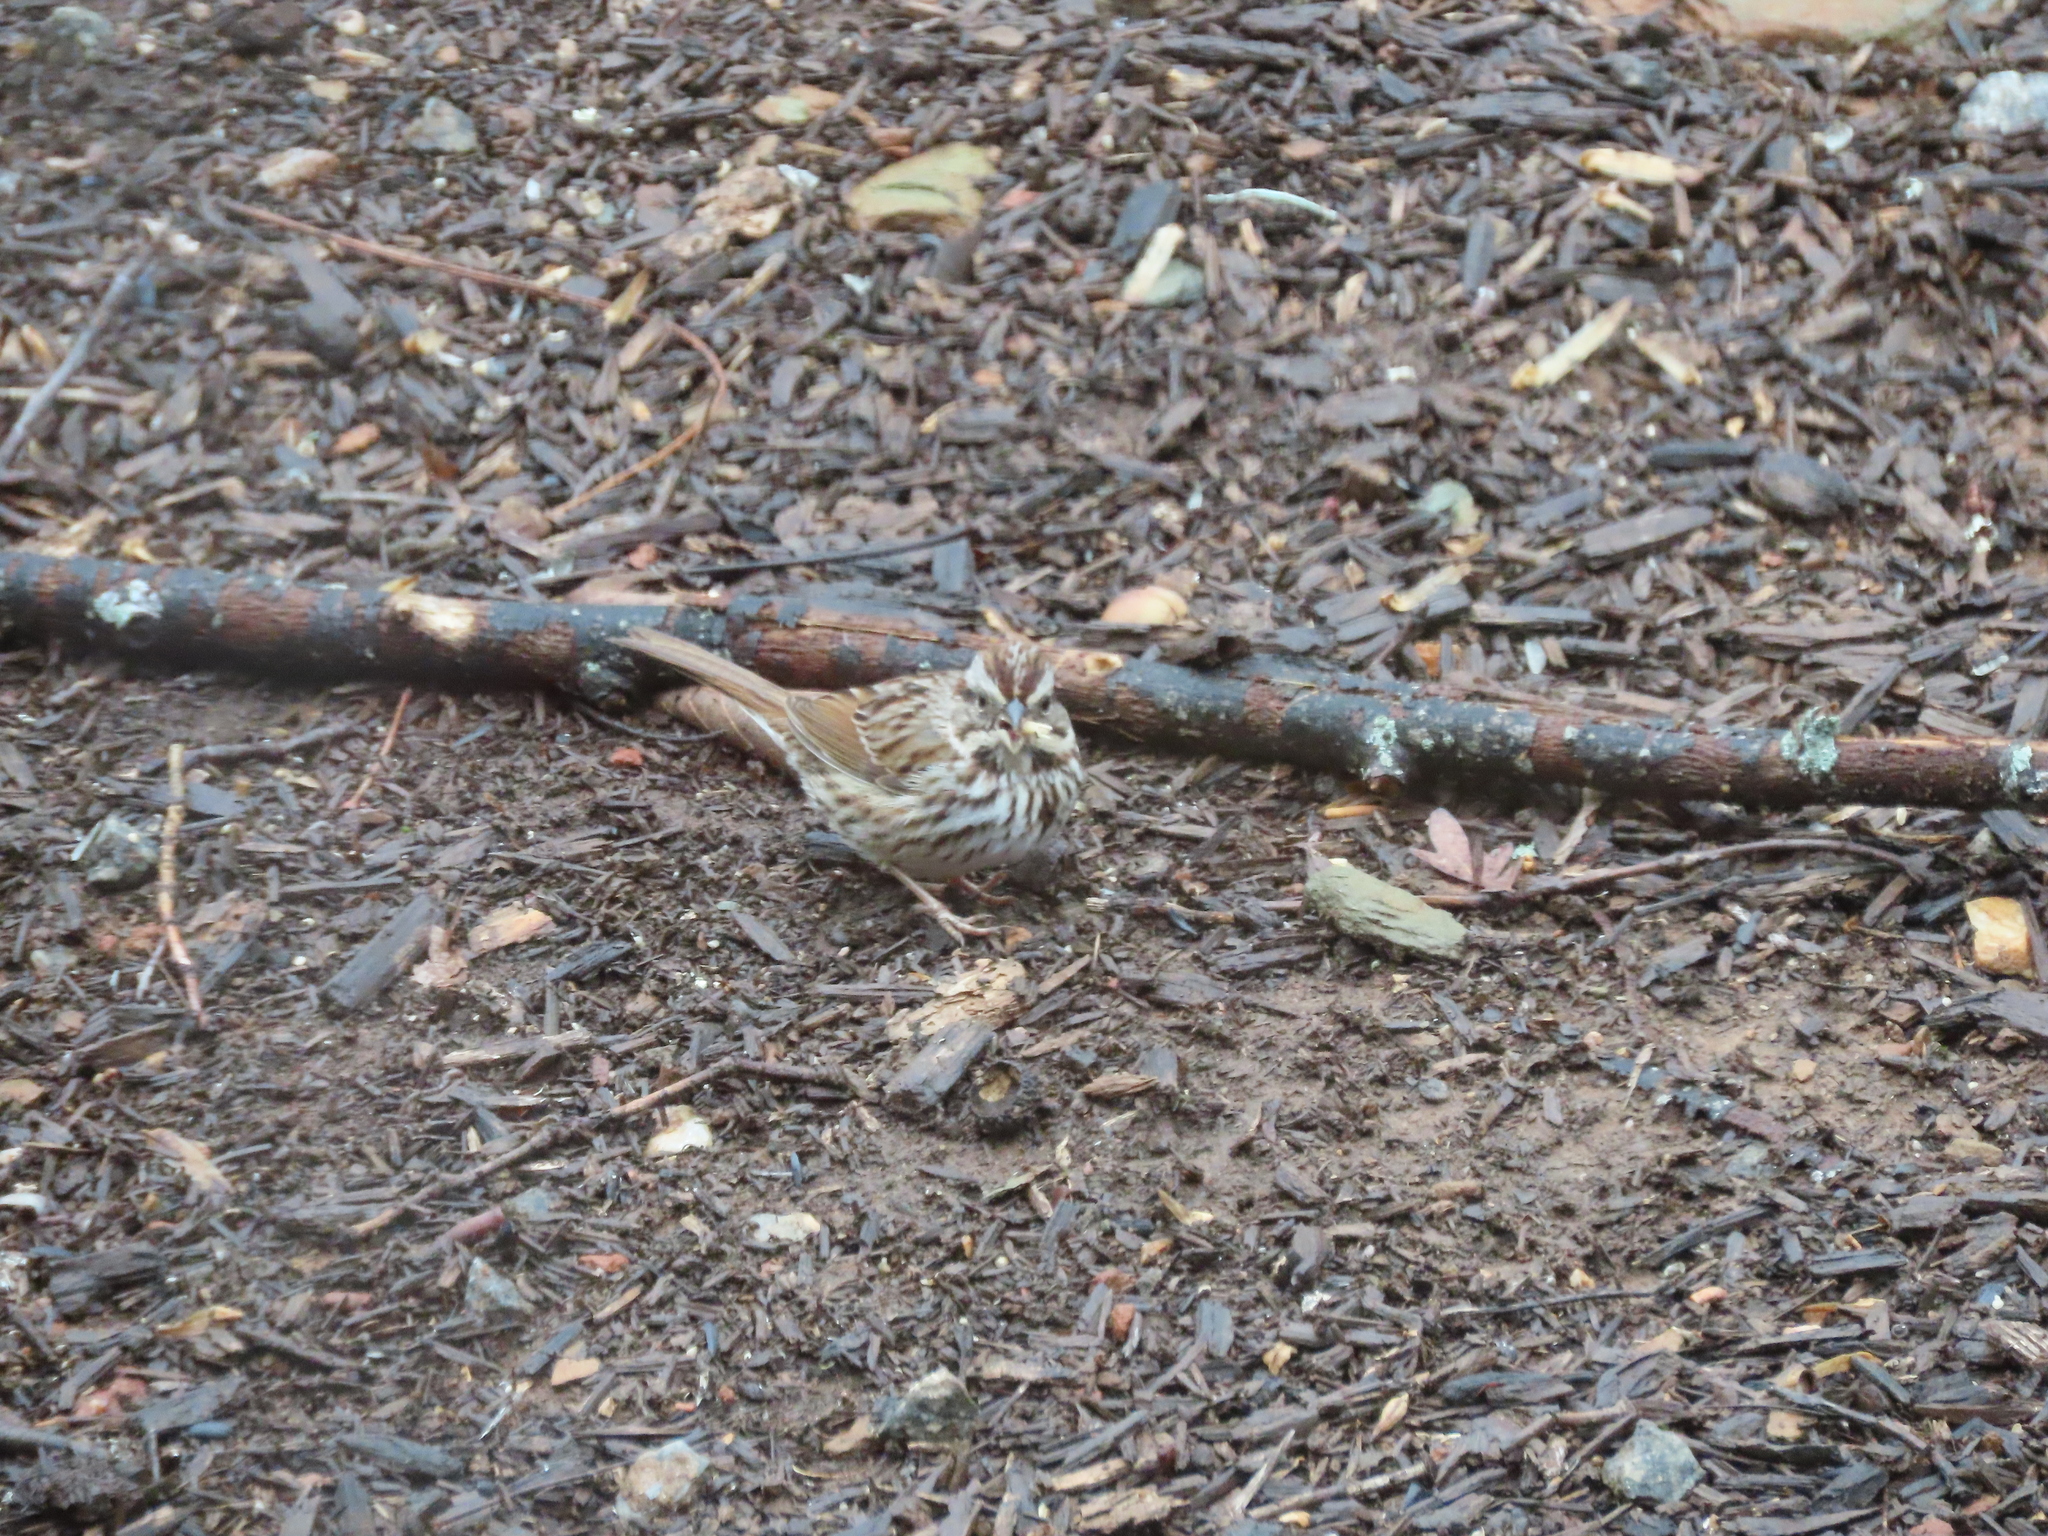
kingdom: Animalia
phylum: Chordata
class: Aves
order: Passeriformes
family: Passerellidae
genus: Melospiza
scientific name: Melospiza melodia
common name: Song sparrow
